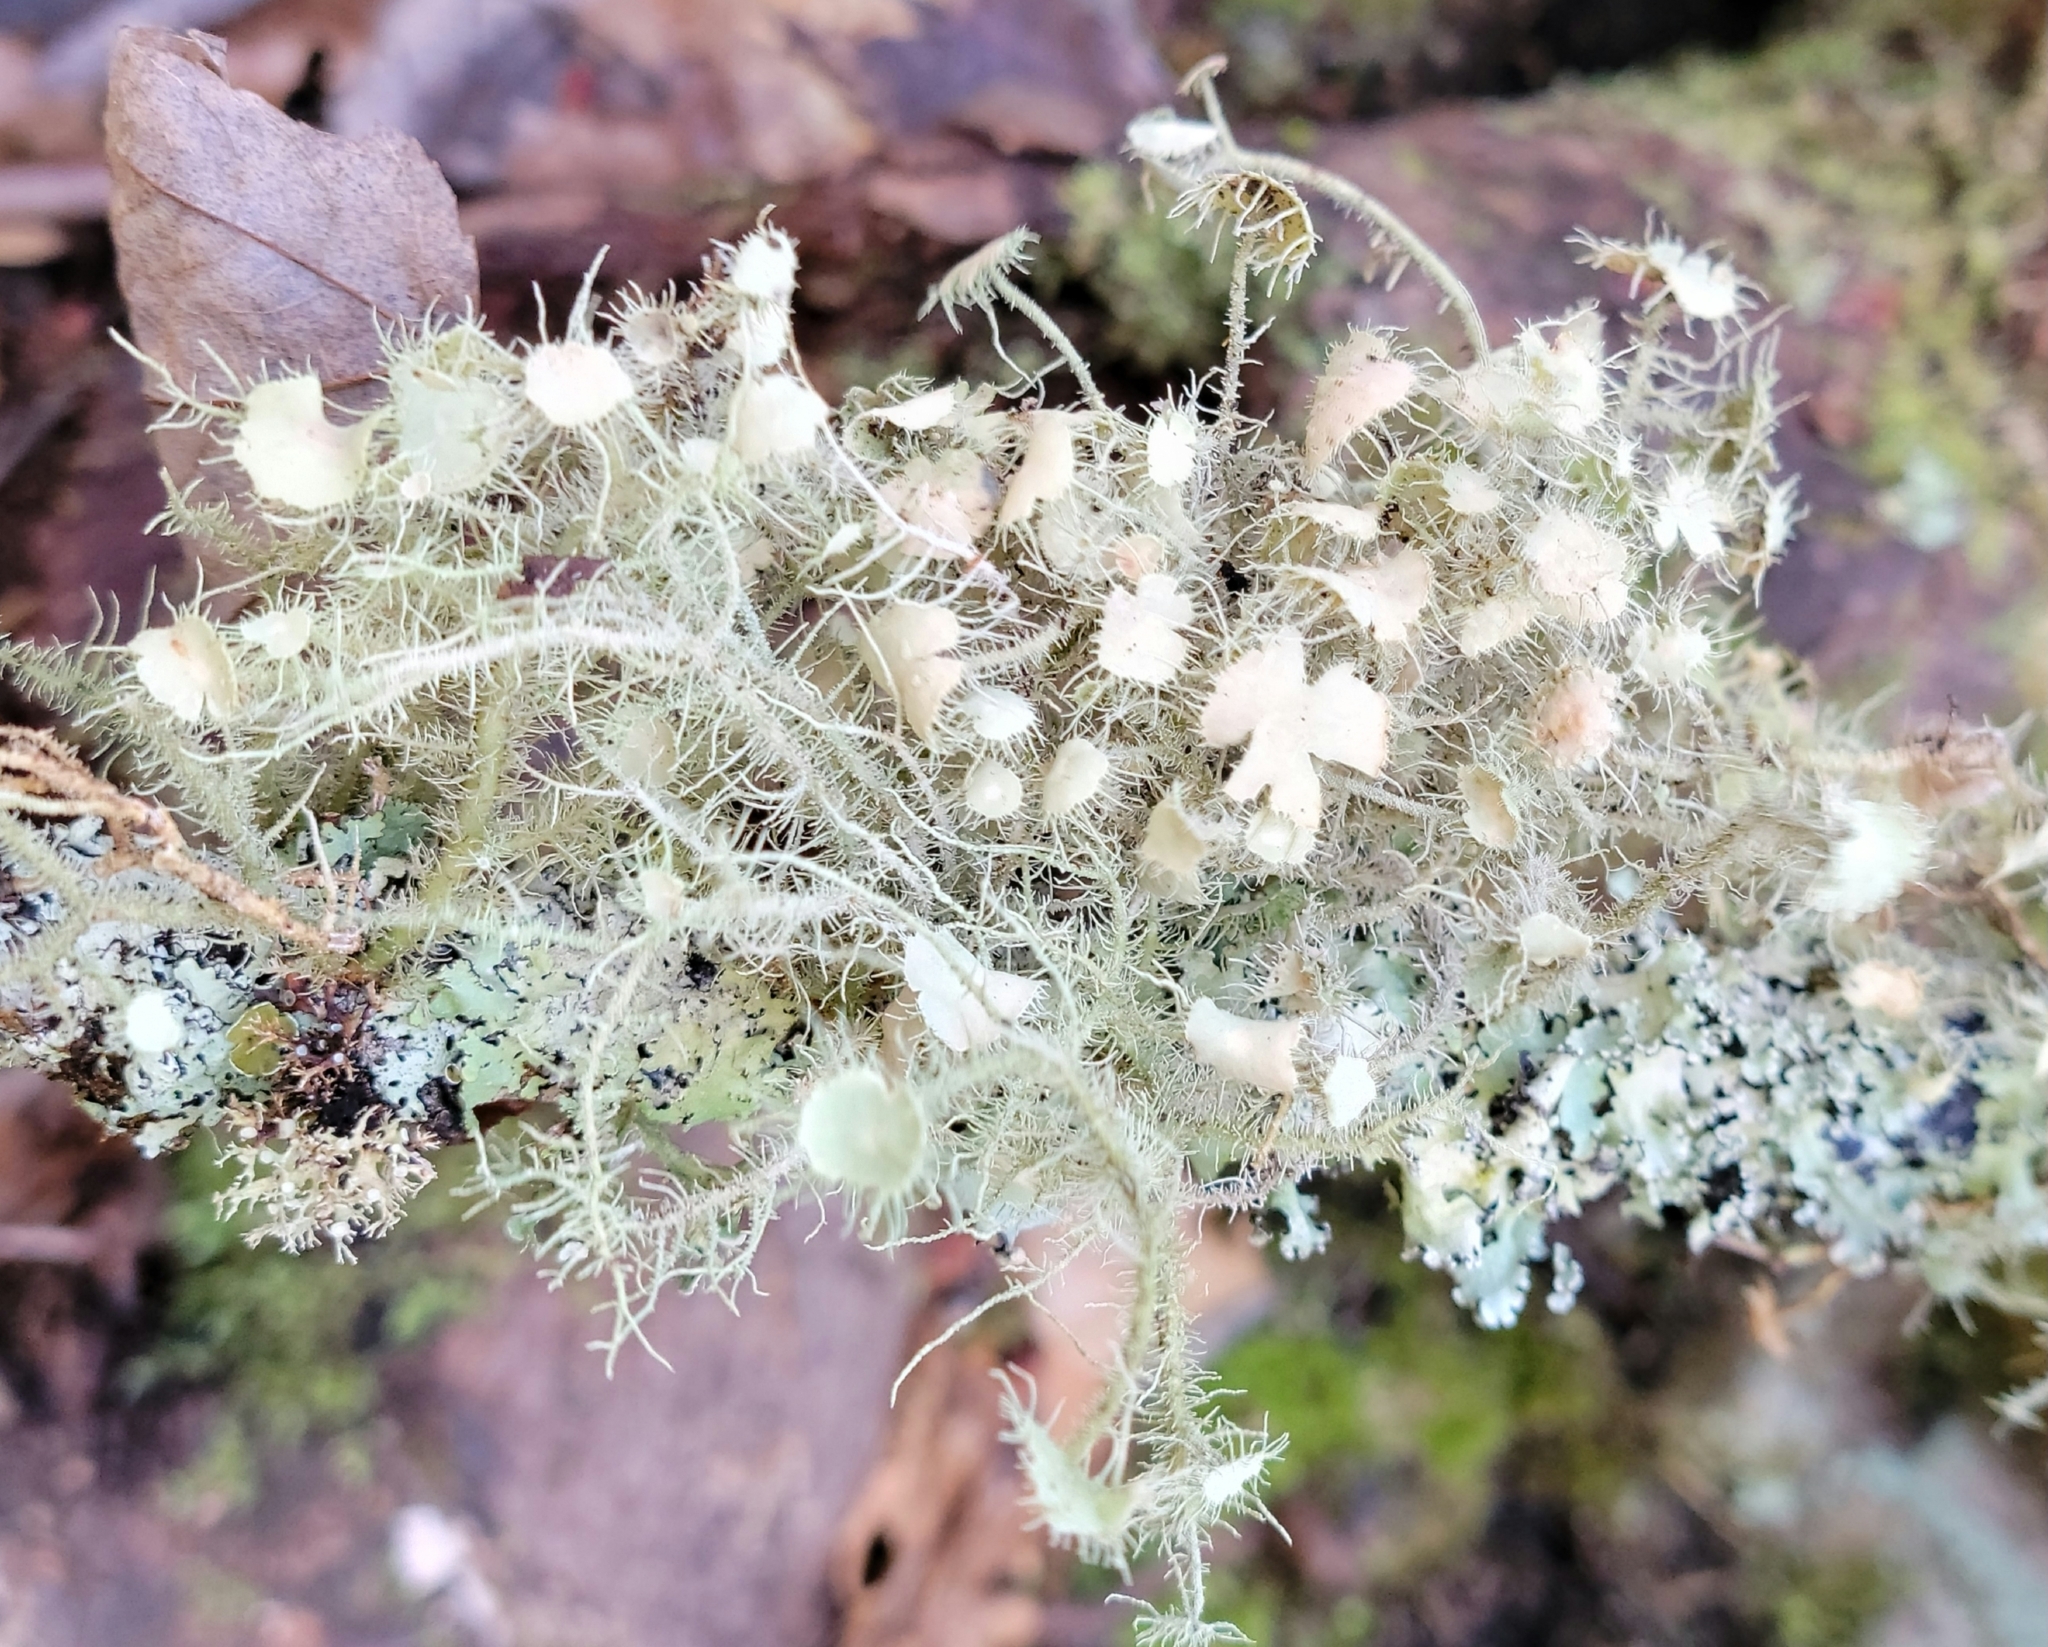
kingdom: Fungi
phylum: Ascomycota
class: Lecanoromycetes
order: Lecanorales
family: Parmeliaceae
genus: Usnea
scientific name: Usnea strigosa
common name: Bushy beard lichen
